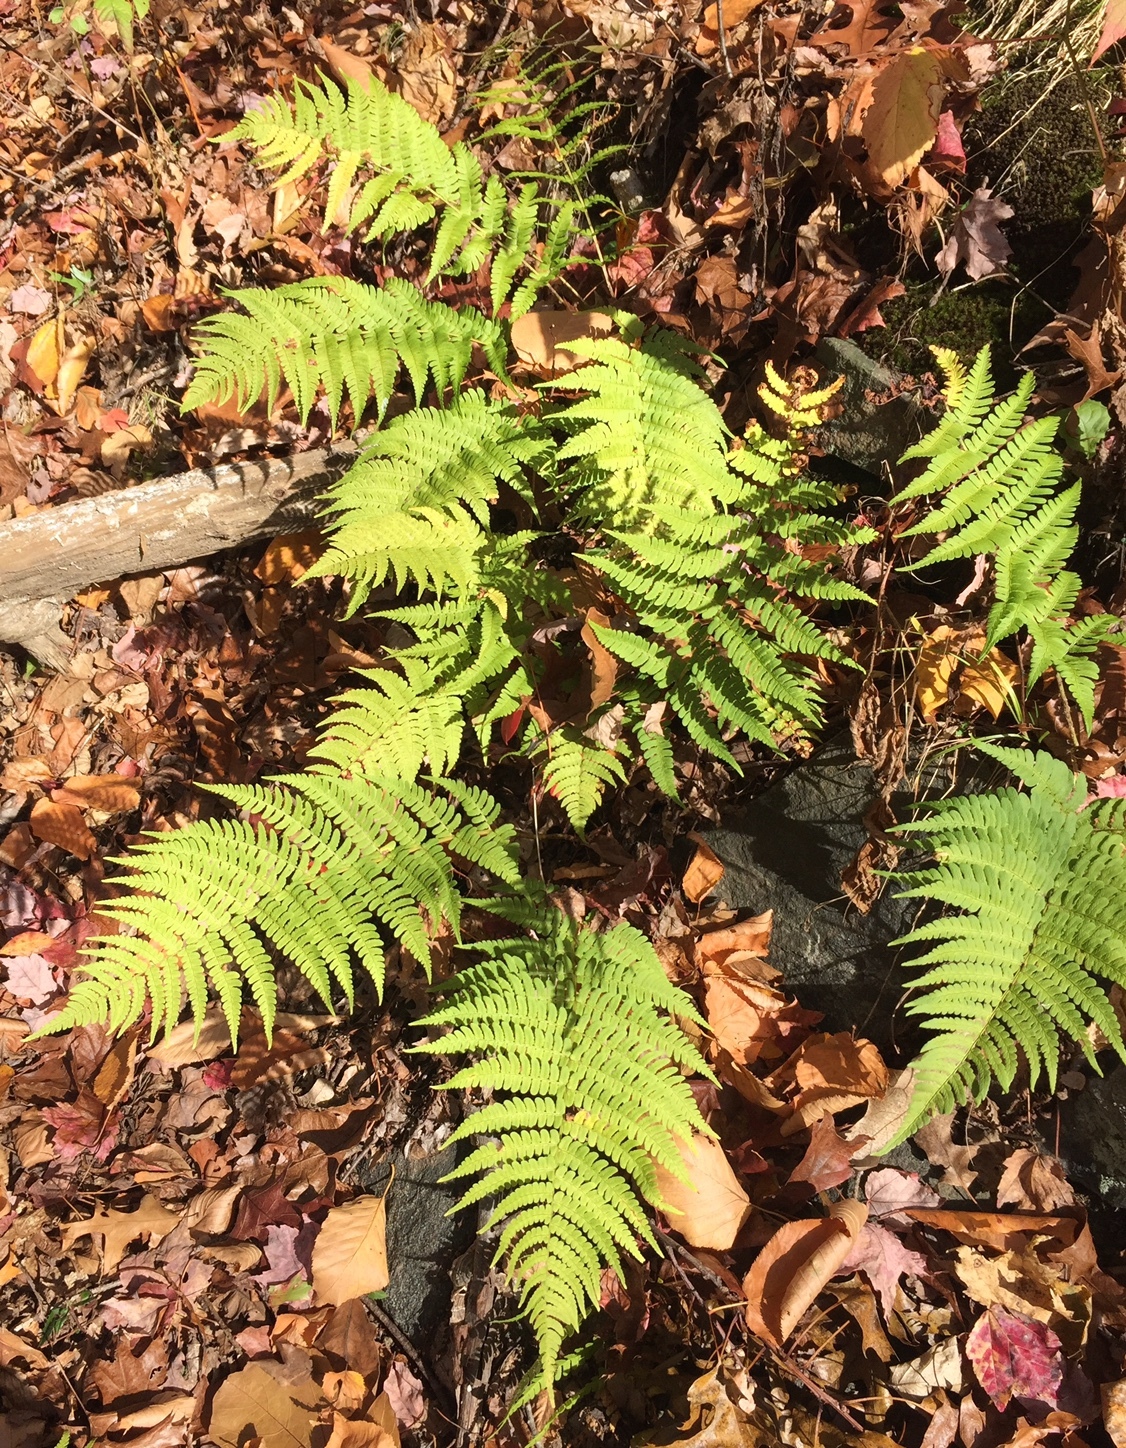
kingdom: Plantae
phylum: Tracheophyta
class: Polypodiopsida
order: Polypodiales
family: Dryopteridaceae
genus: Dryopteris
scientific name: Dryopteris marginalis
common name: Marginal wood fern
